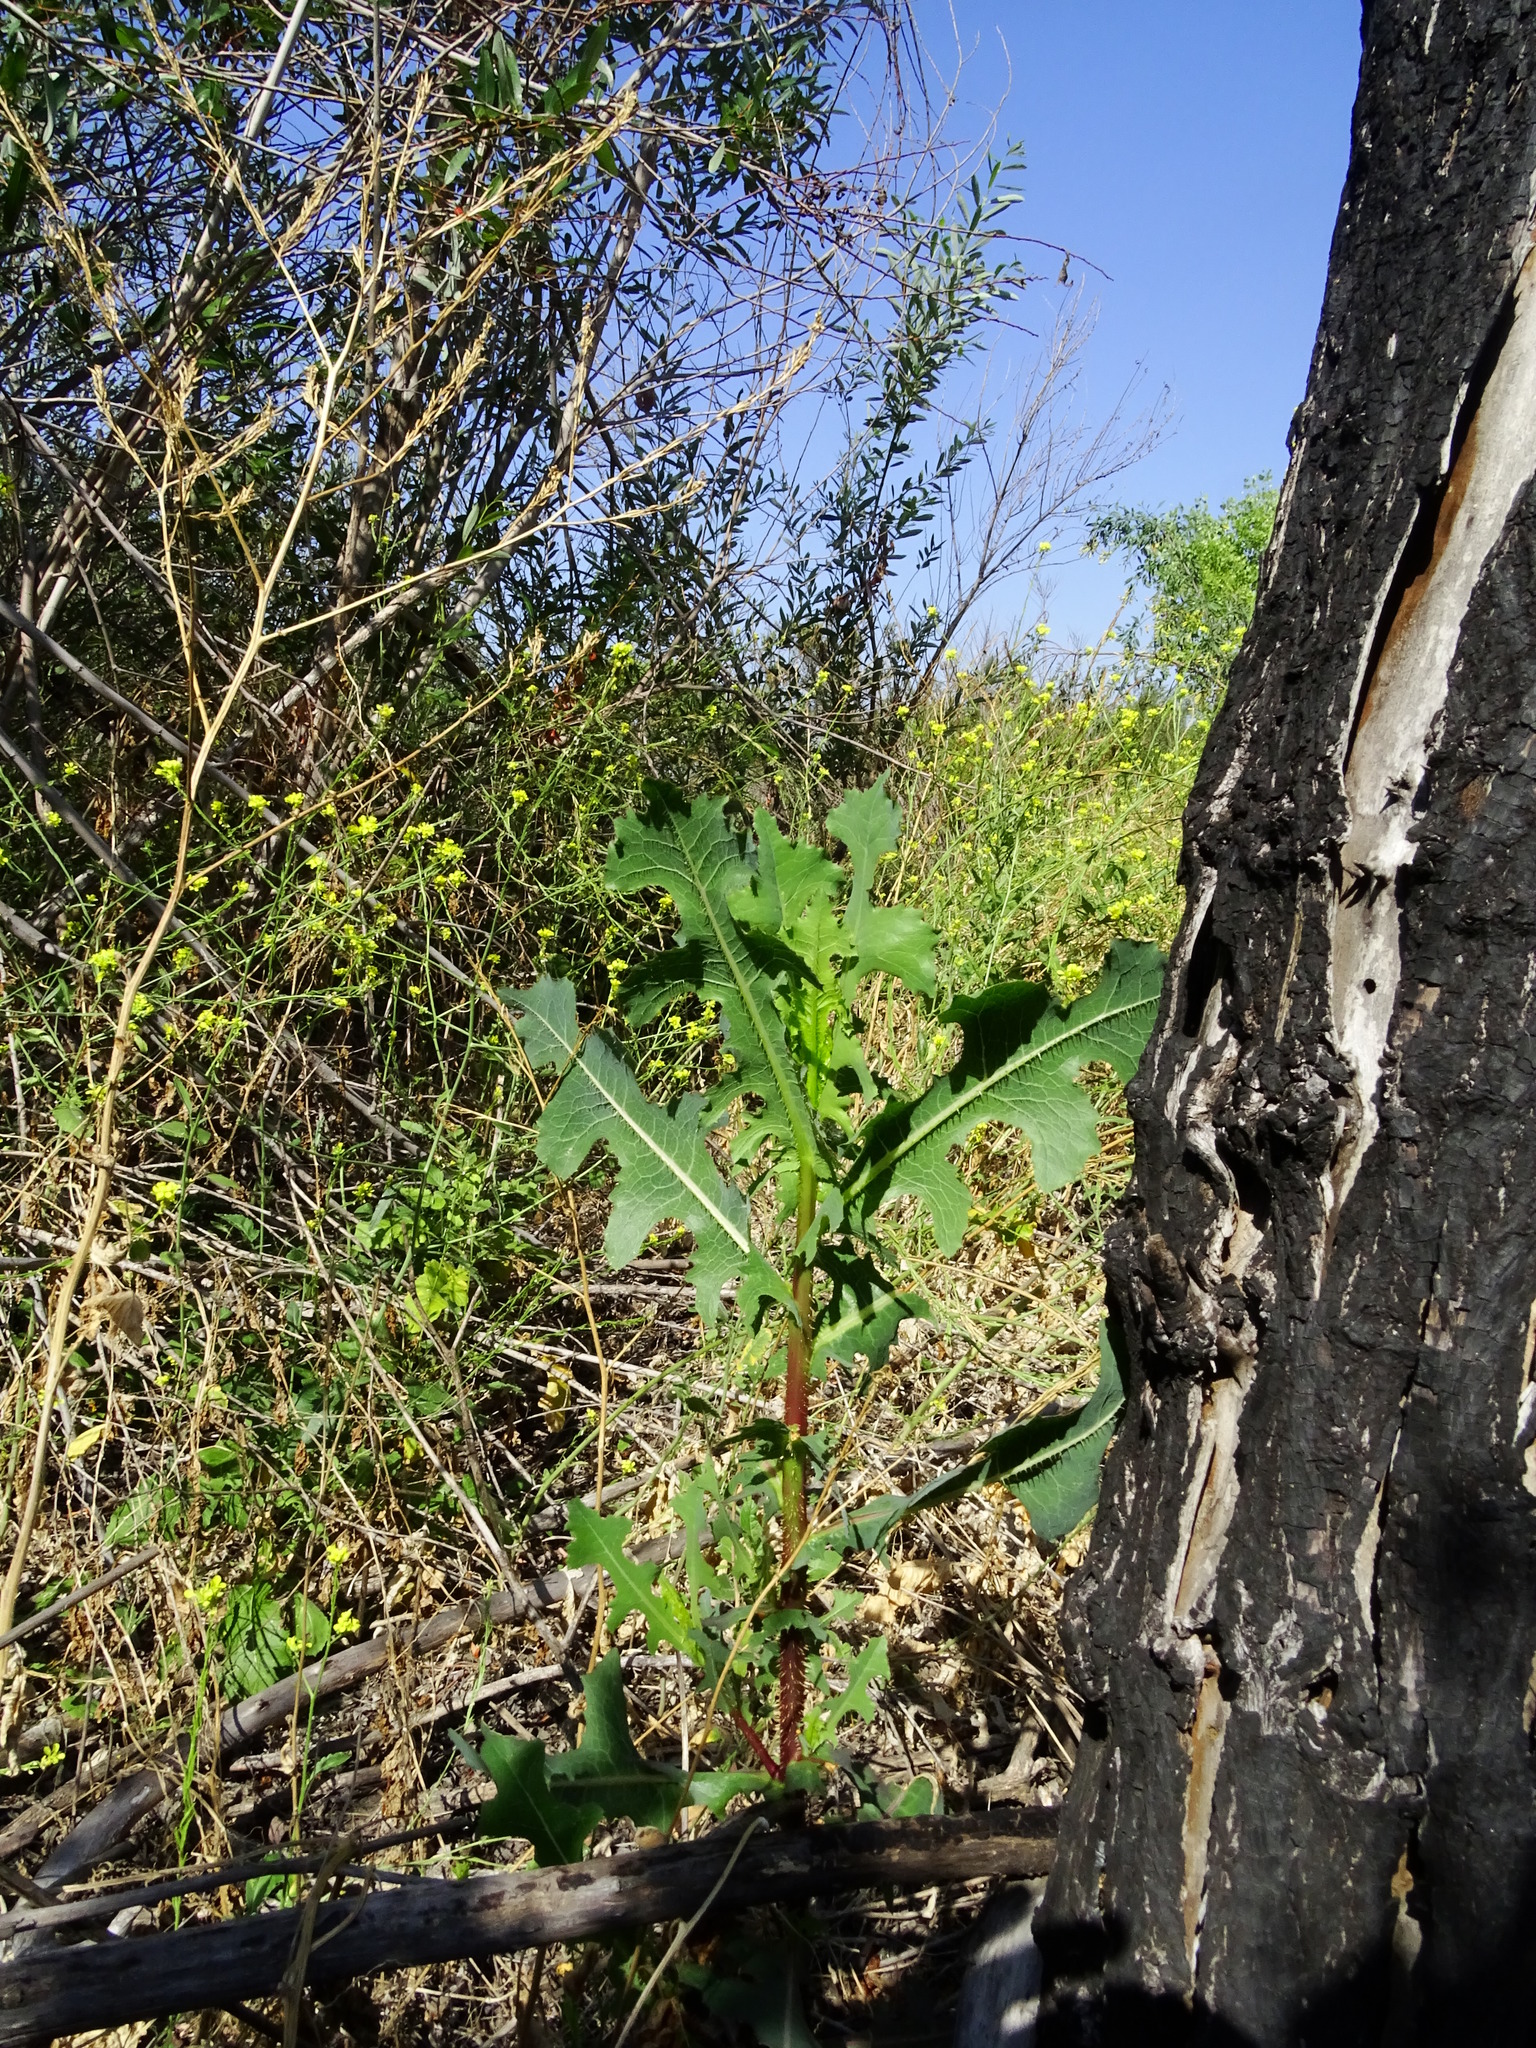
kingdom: Plantae
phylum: Tracheophyta
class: Magnoliopsida
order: Asterales
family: Asteraceae
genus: Lactuca
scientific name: Lactuca serriola
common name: Prickly lettuce
